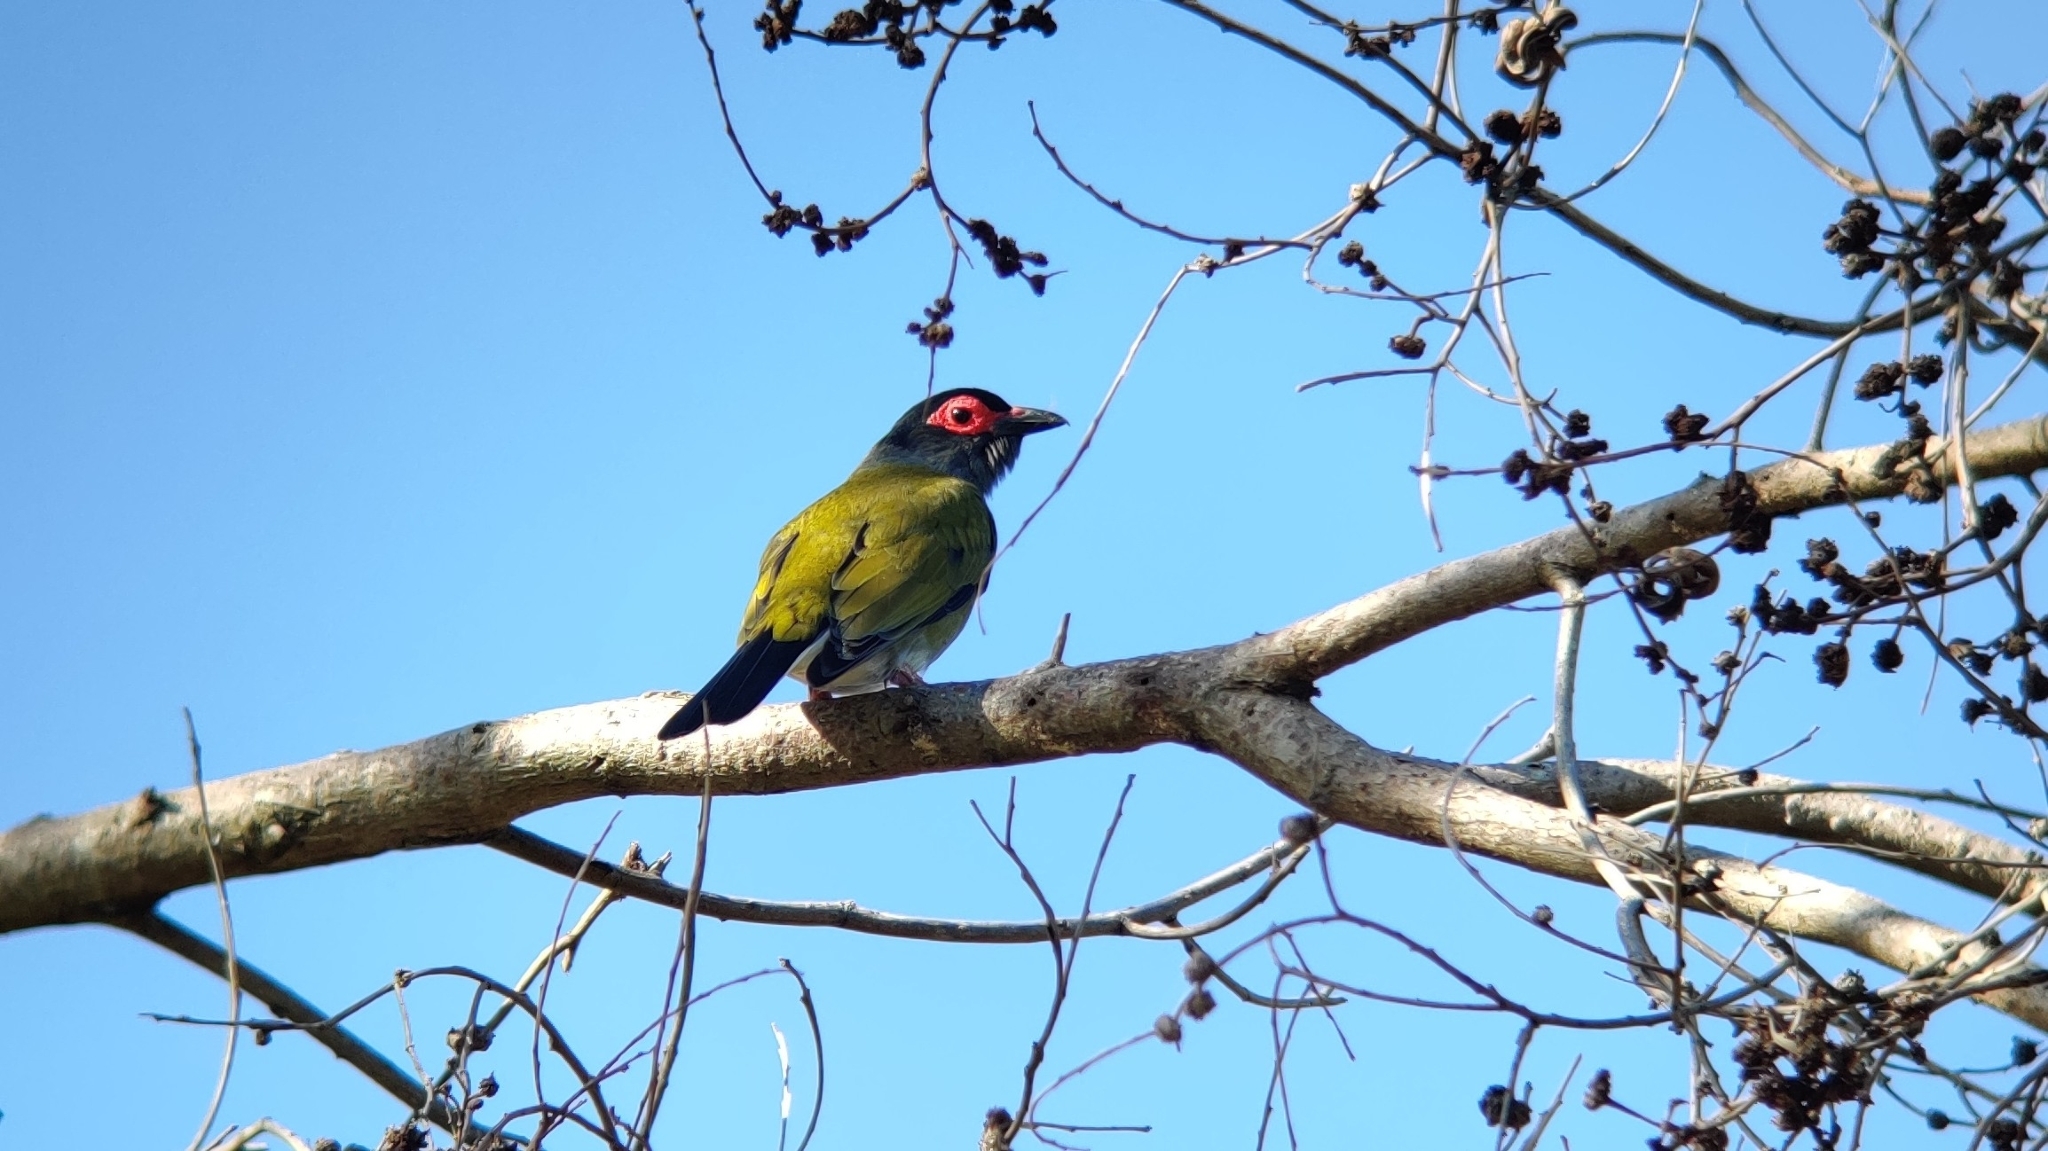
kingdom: Animalia
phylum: Chordata
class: Aves
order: Passeriformes
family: Oriolidae
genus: Sphecotheres
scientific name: Sphecotheres vieilloti
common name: Australasian figbird
